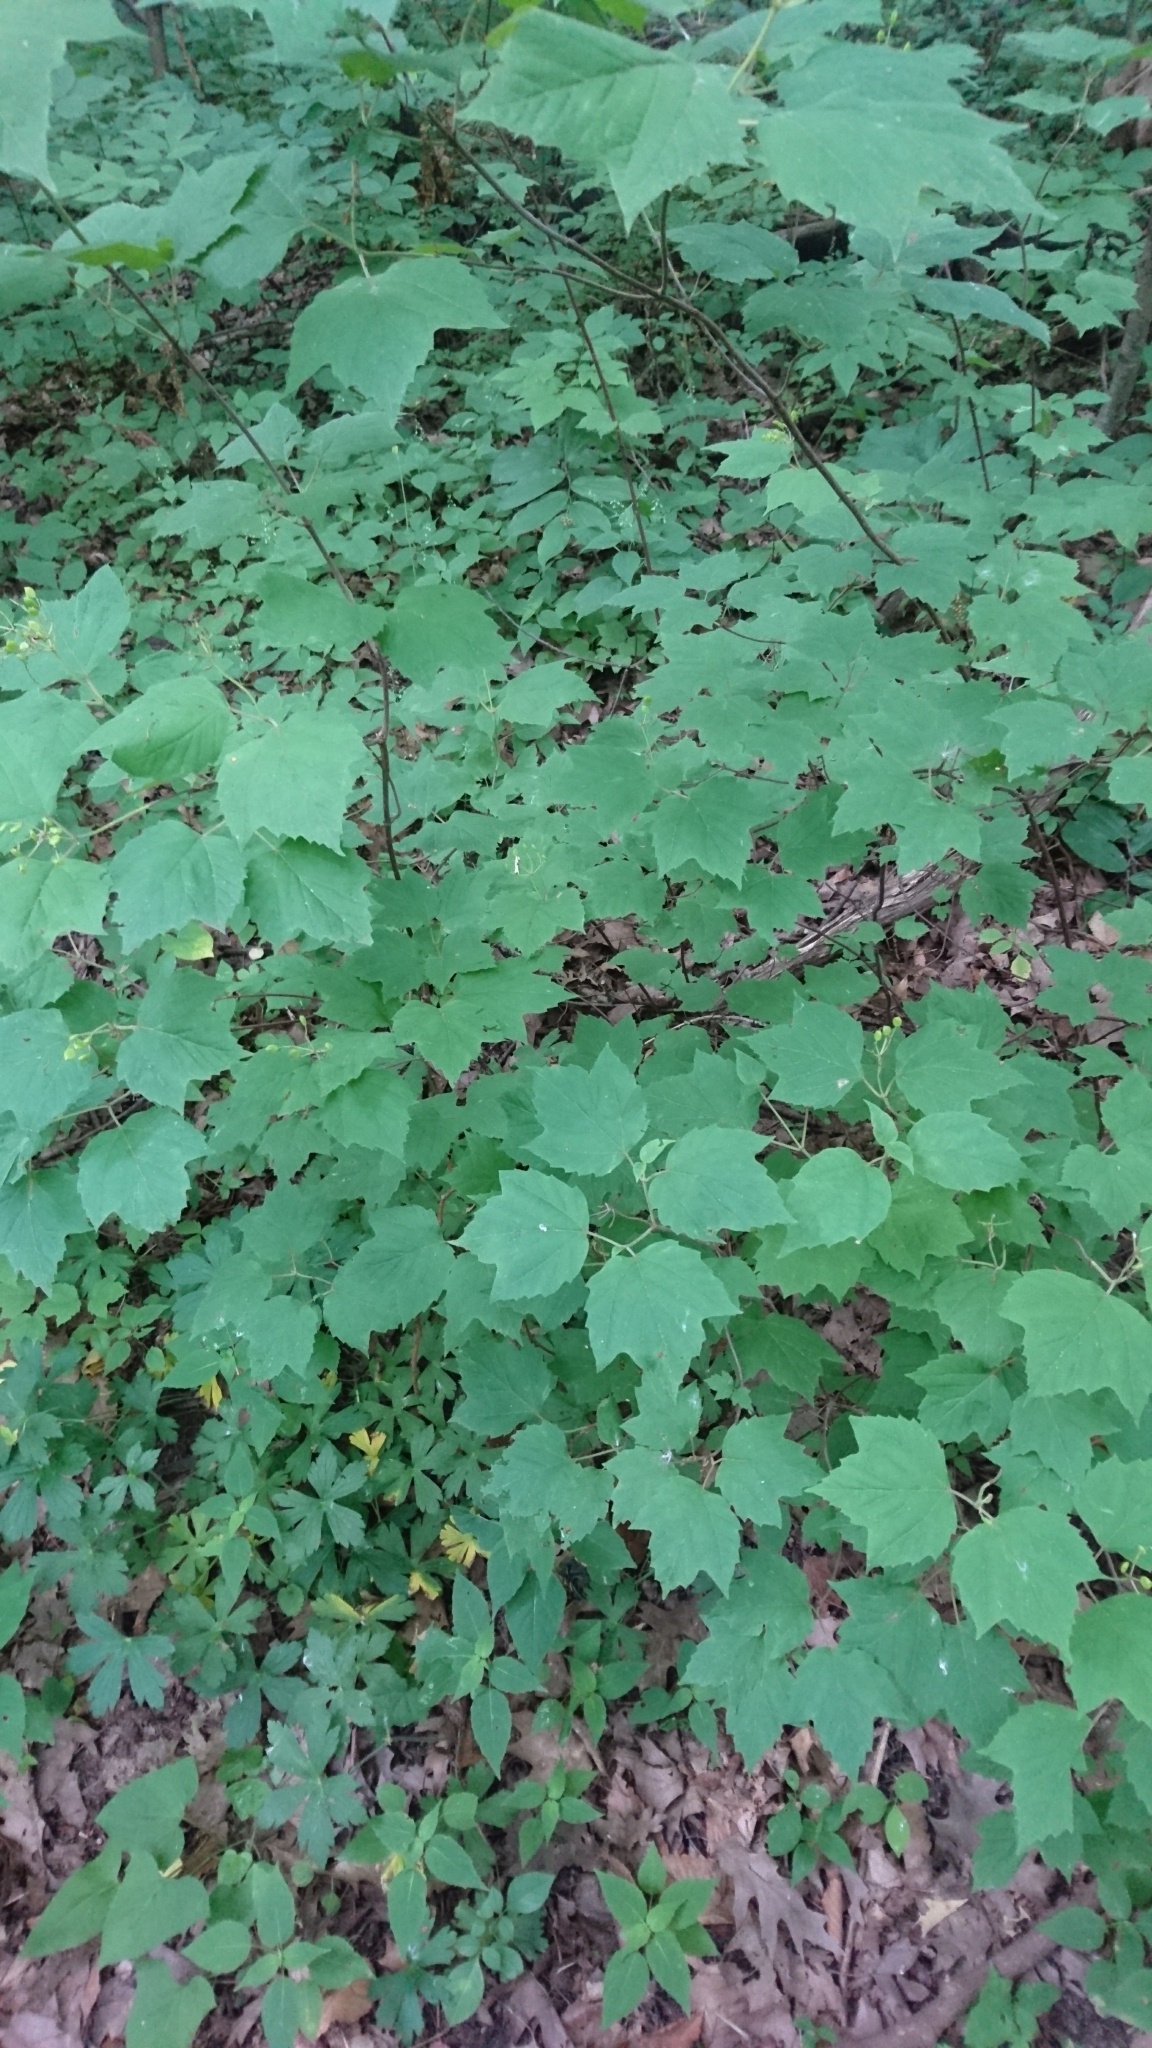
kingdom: Plantae
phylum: Tracheophyta
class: Magnoliopsida
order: Dipsacales
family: Viburnaceae
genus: Viburnum
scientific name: Viburnum acerifolium
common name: Dockmackie
